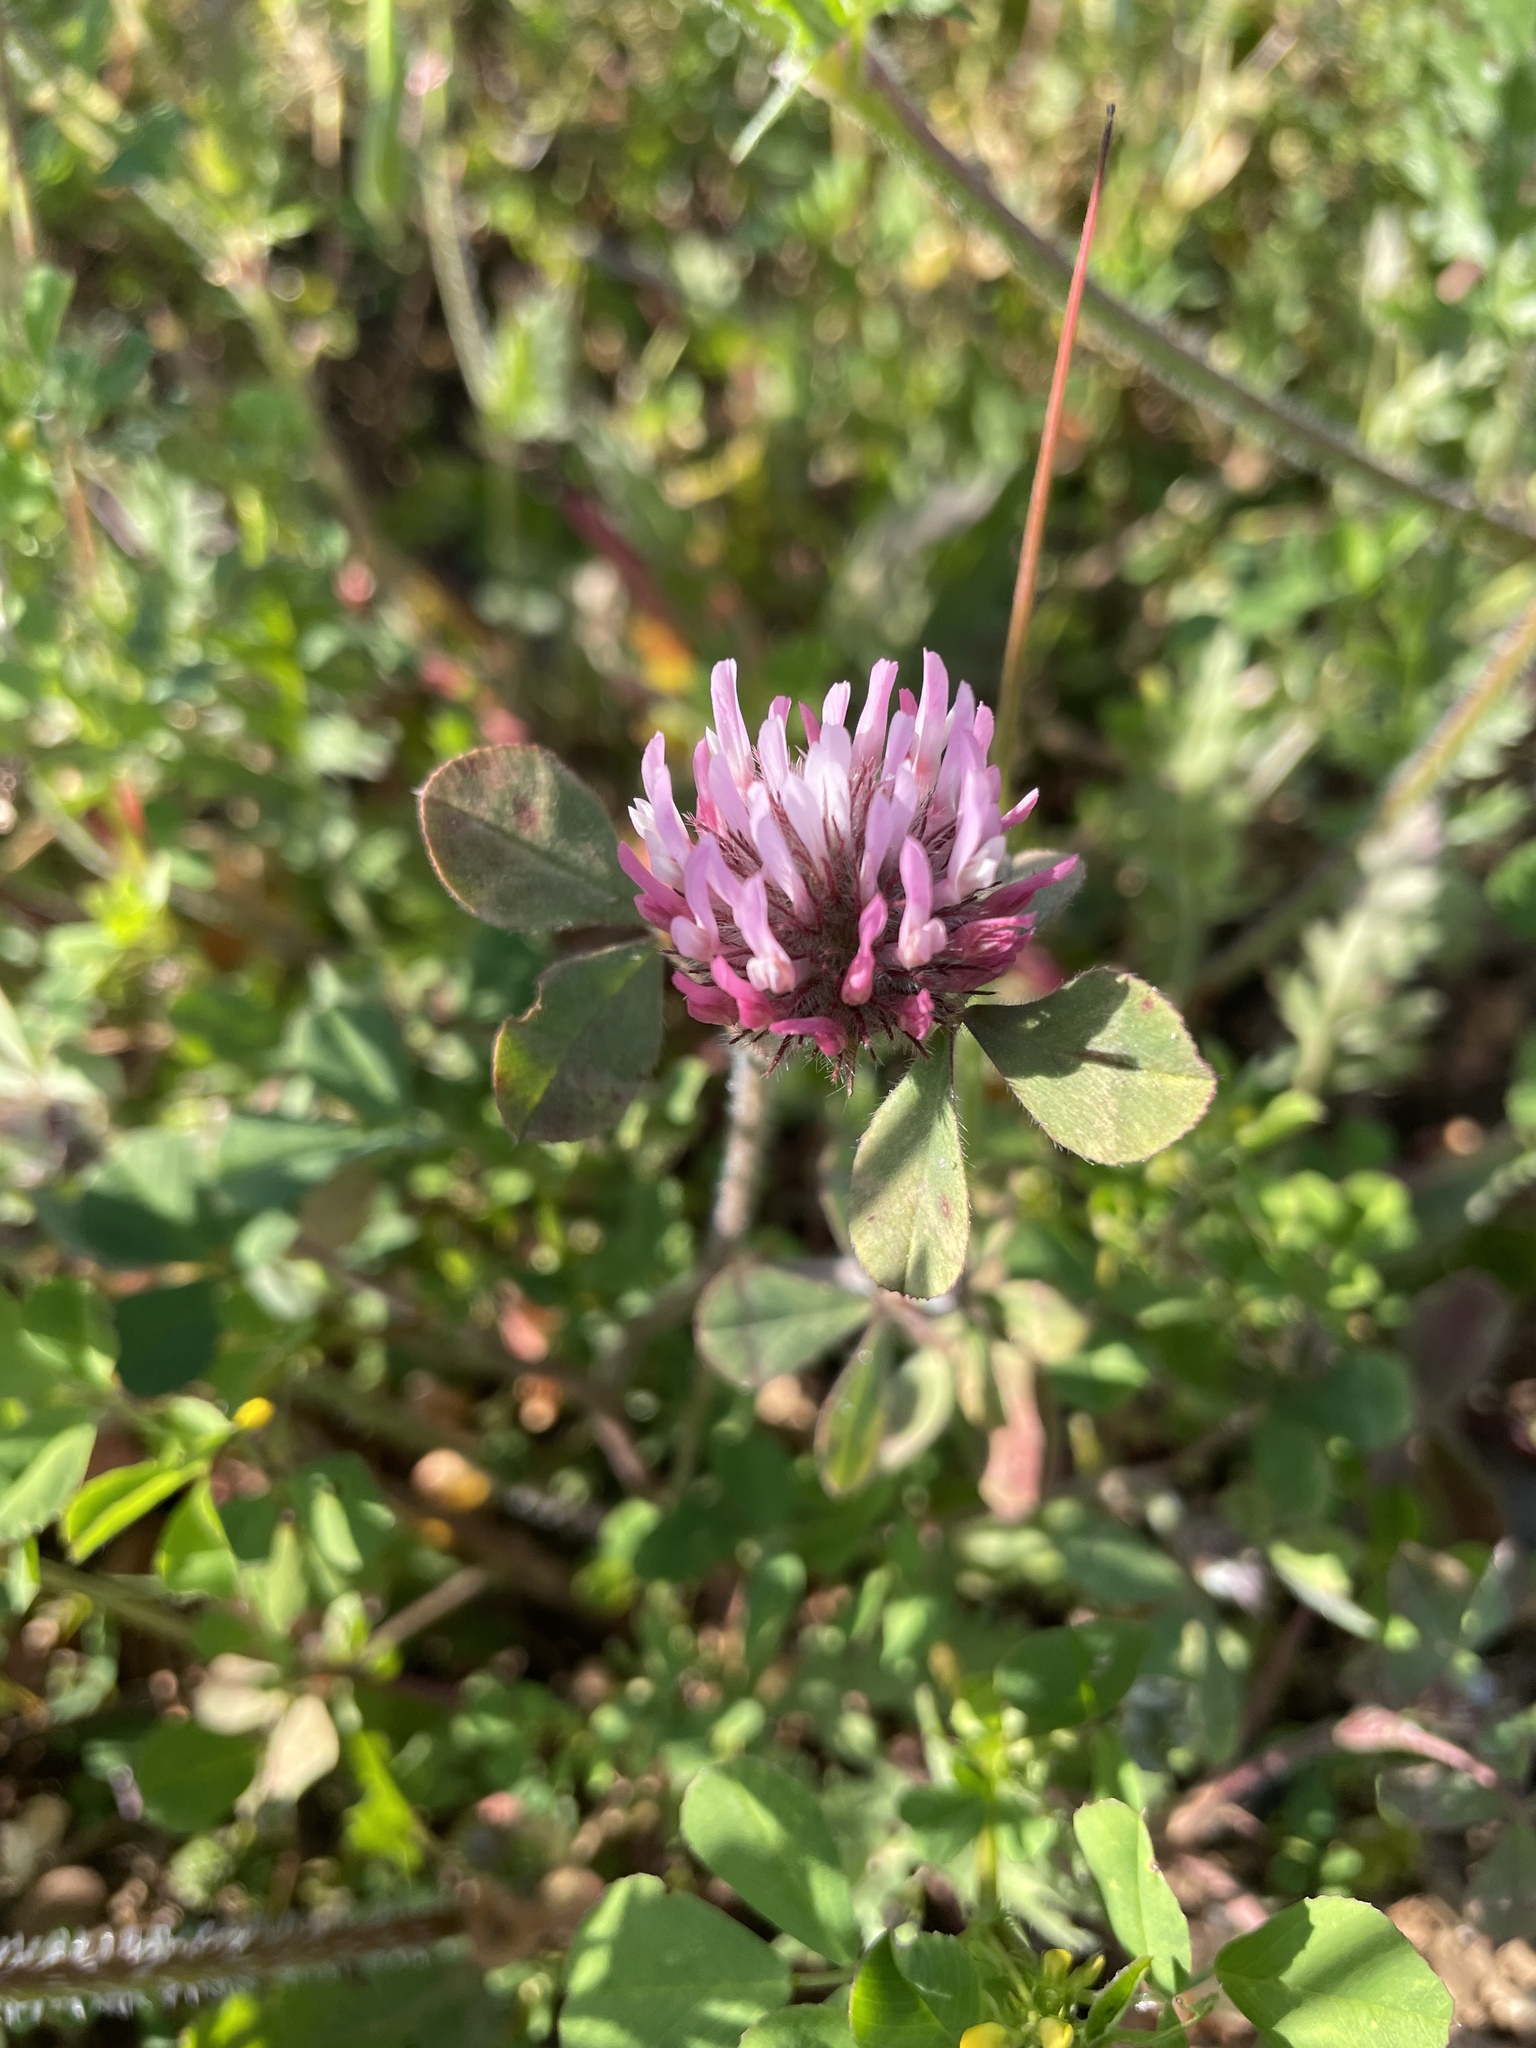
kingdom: Plantae
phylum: Tracheophyta
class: Magnoliopsida
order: Fabales
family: Fabaceae
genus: Trifolium
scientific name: Trifolium hirtum
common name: Rose clover
